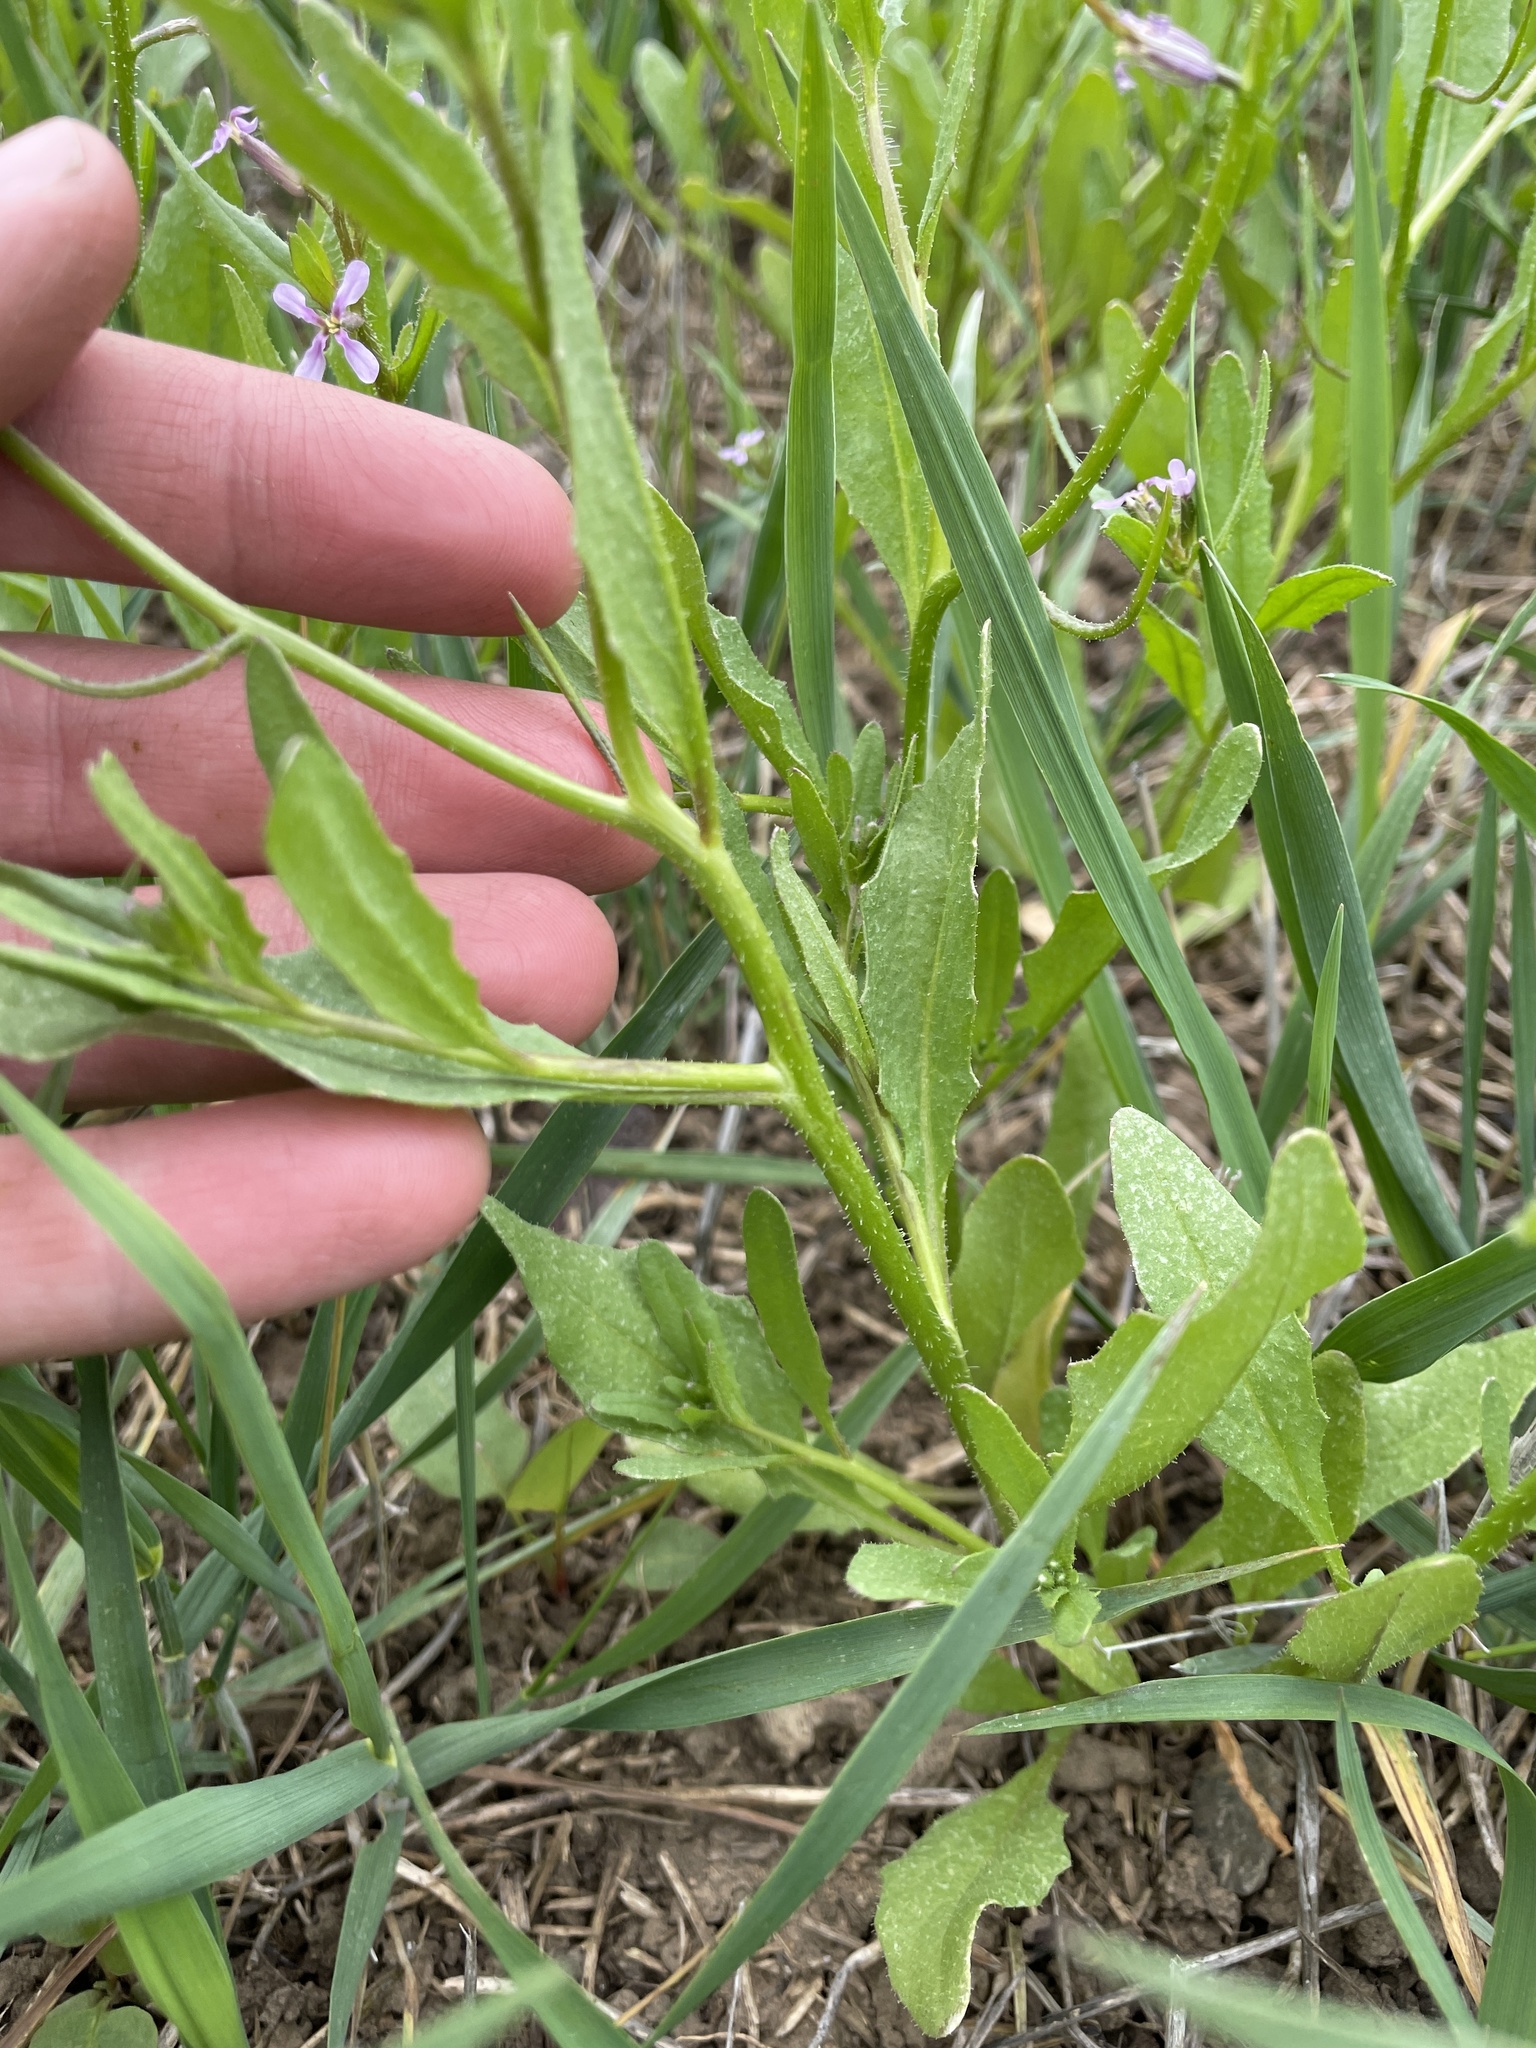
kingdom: Plantae
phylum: Tracheophyta
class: Magnoliopsida
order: Brassicales
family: Brassicaceae
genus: Chorispora
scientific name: Chorispora tenella
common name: Crossflower
